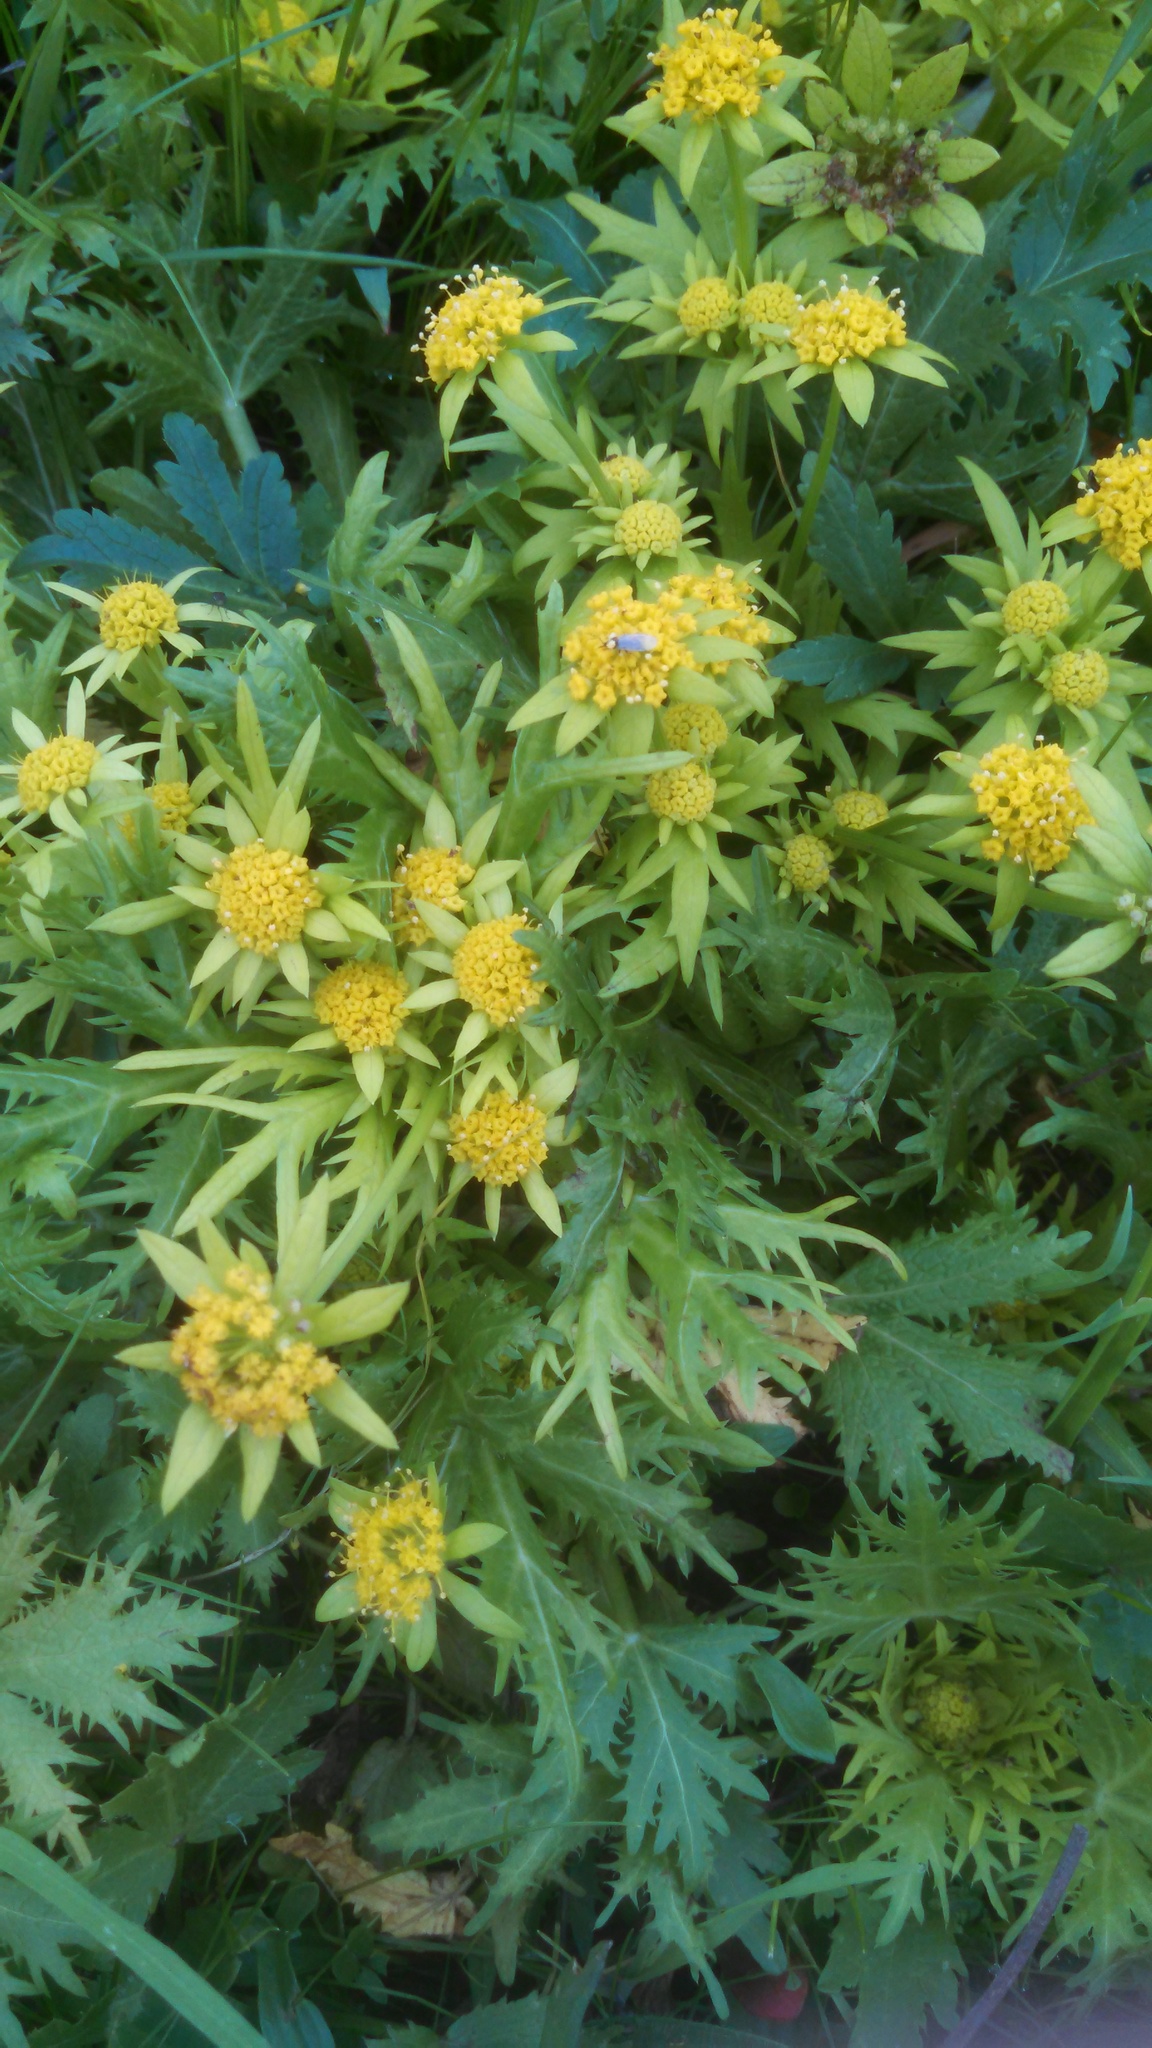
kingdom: Plantae
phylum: Tracheophyta
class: Magnoliopsida
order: Apiales
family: Apiaceae
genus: Sanicula
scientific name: Sanicula arctopoides
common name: Footsteps-of-spring
